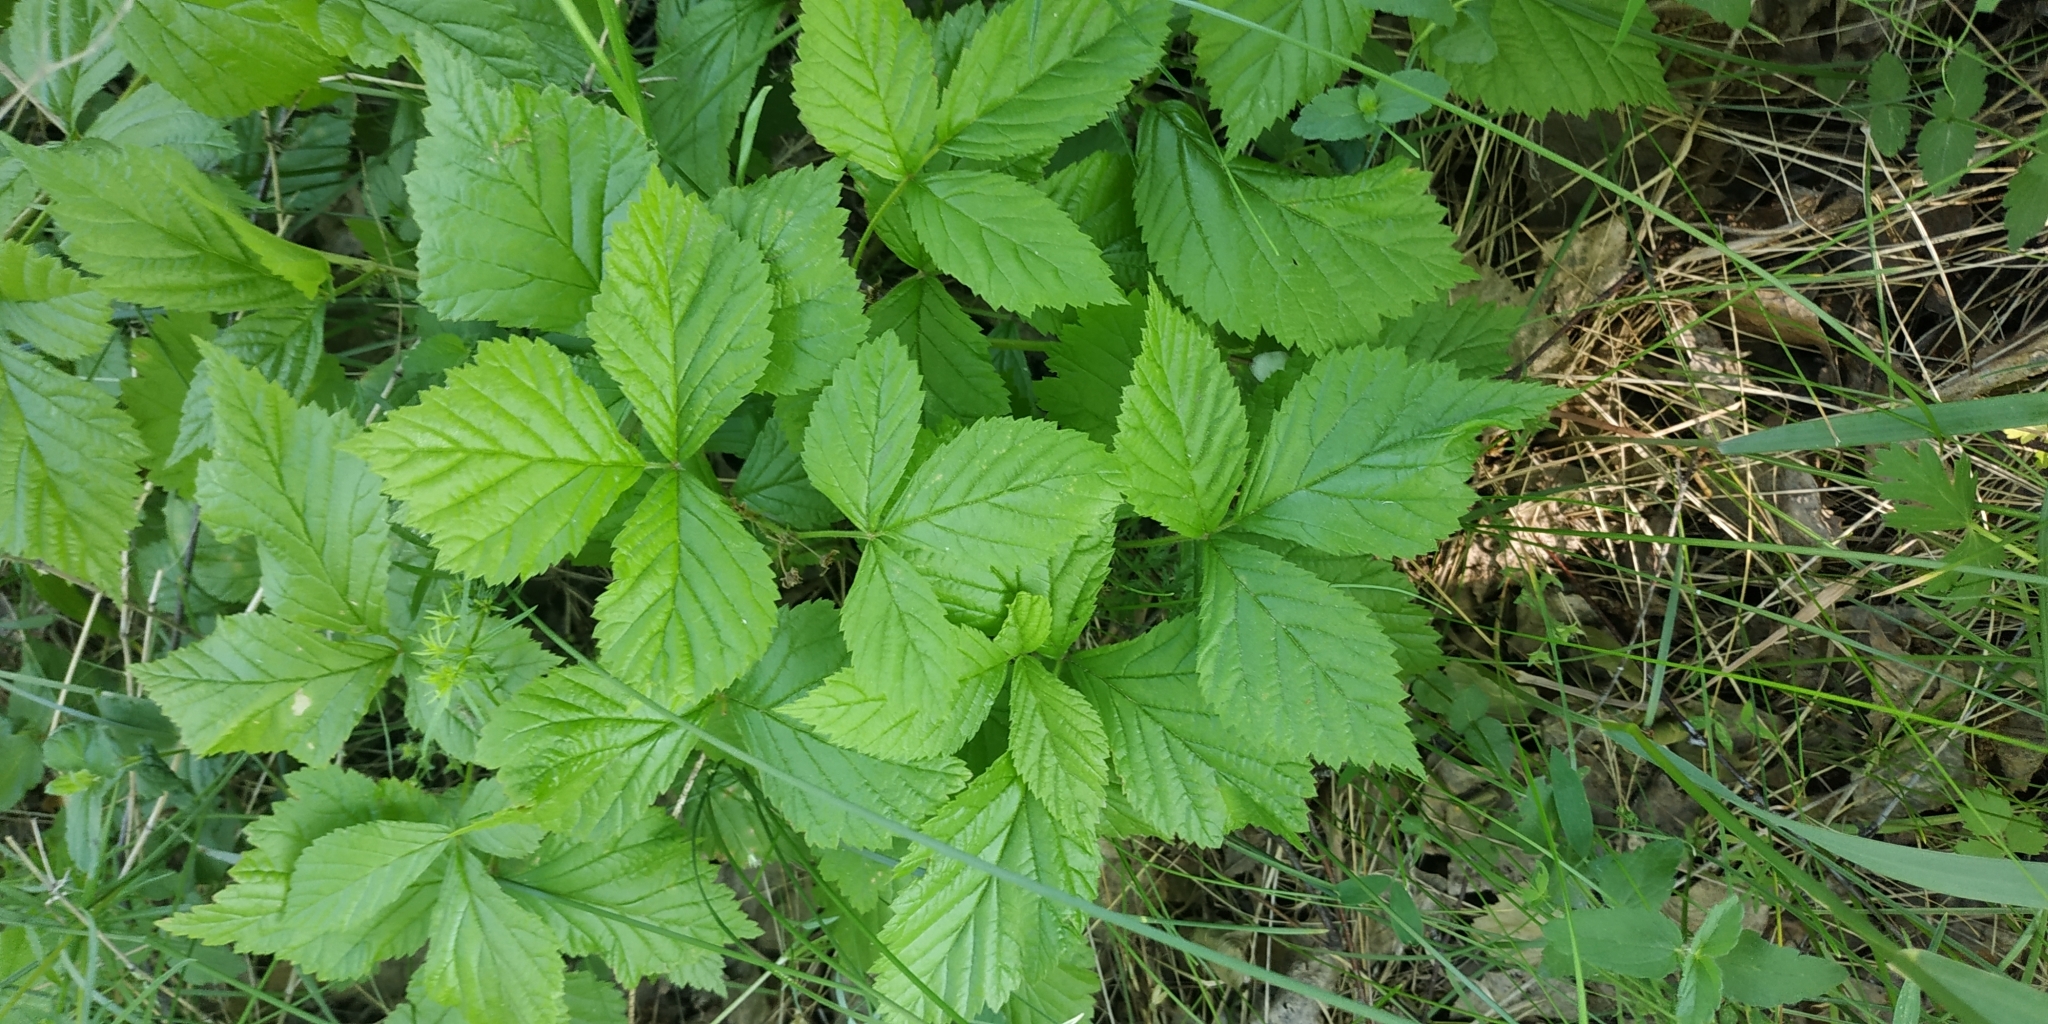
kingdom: Plantae
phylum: Tracheophyta
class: Magnoliopsida
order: Rosales
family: Rosaceae
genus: Rubus
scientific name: Rubus saxatilis
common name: Stone bramble
